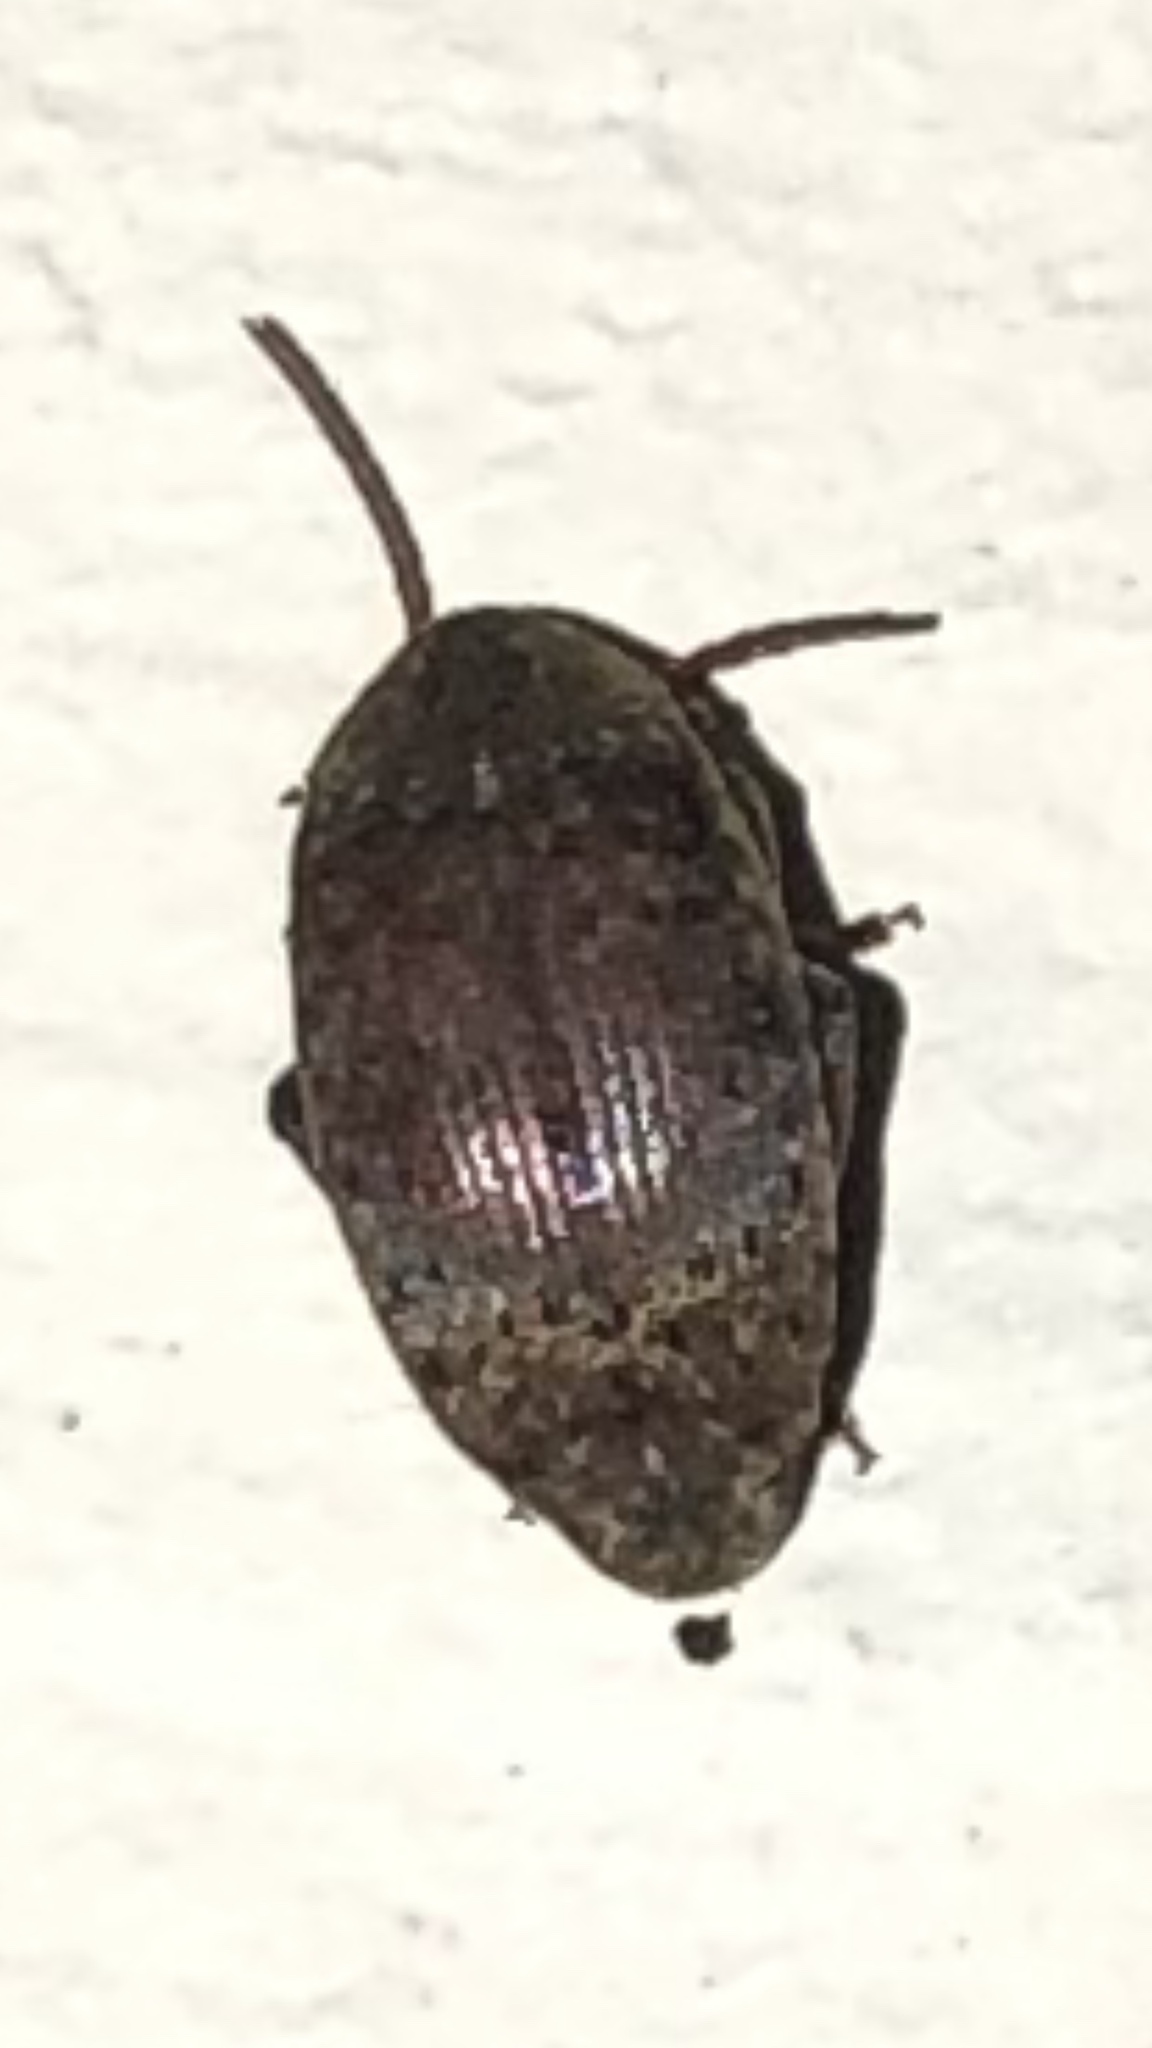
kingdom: Animalia
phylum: Arthropoda
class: Insecta
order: Coleoptera
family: Chrysomelidae
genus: Amblycerus
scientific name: Amblycerus robiniae
